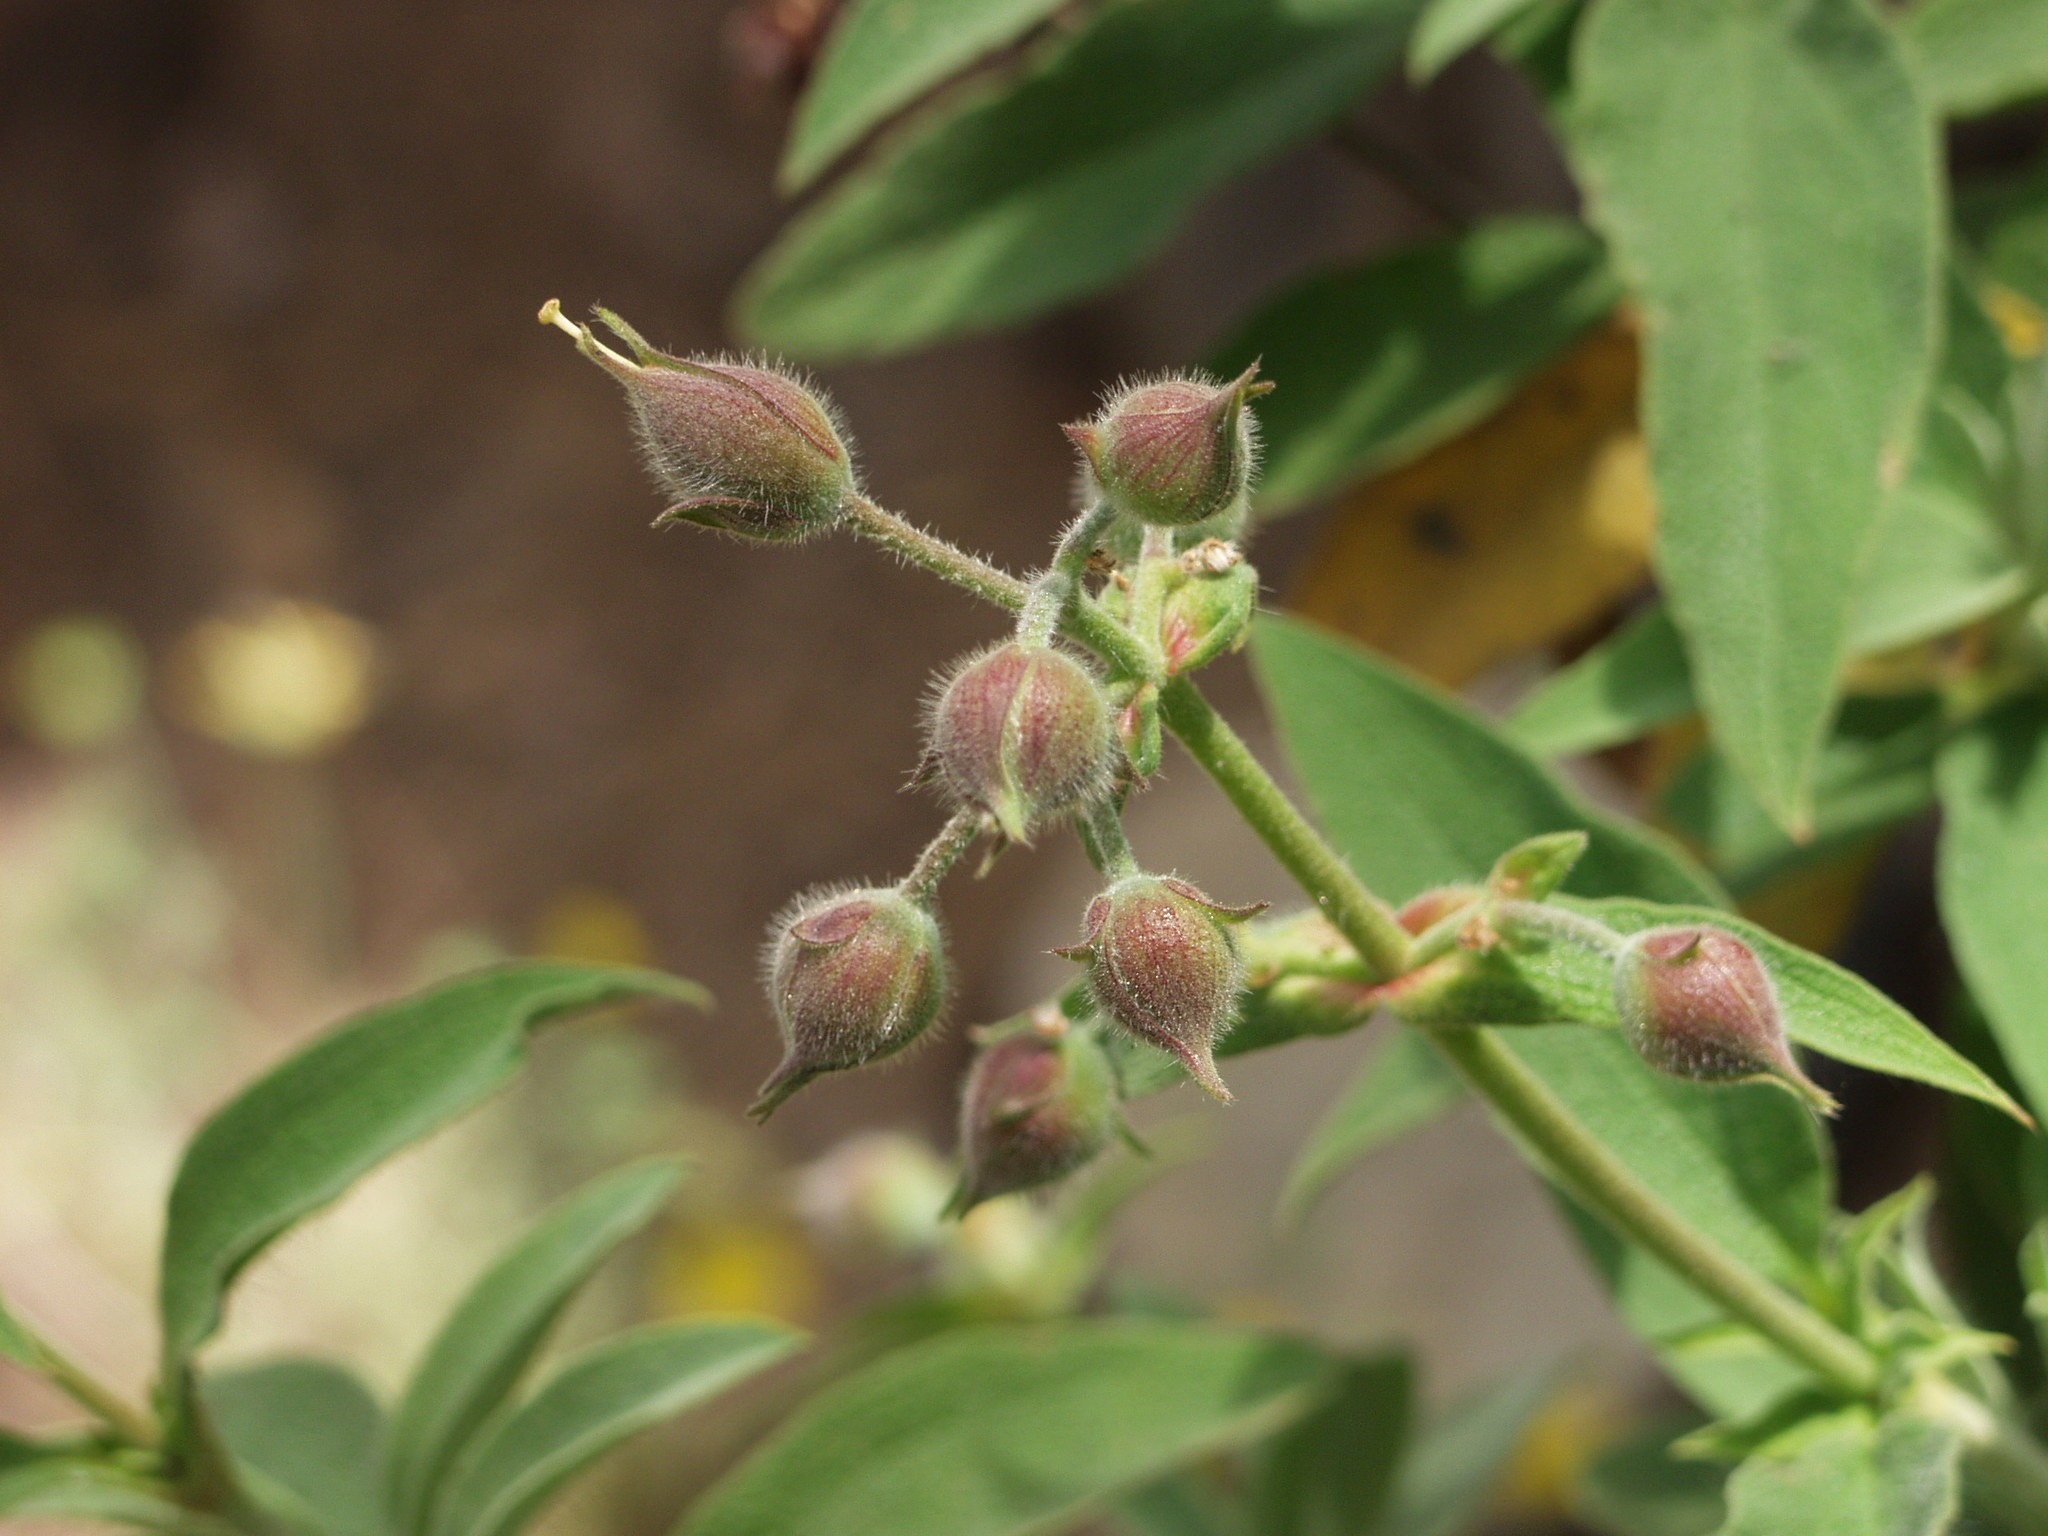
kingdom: Plantae
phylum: Tracheophyta
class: Magnoliopsida
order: Malvales
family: Cistaceae
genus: Cistus
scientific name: Cistus symphytifolius
